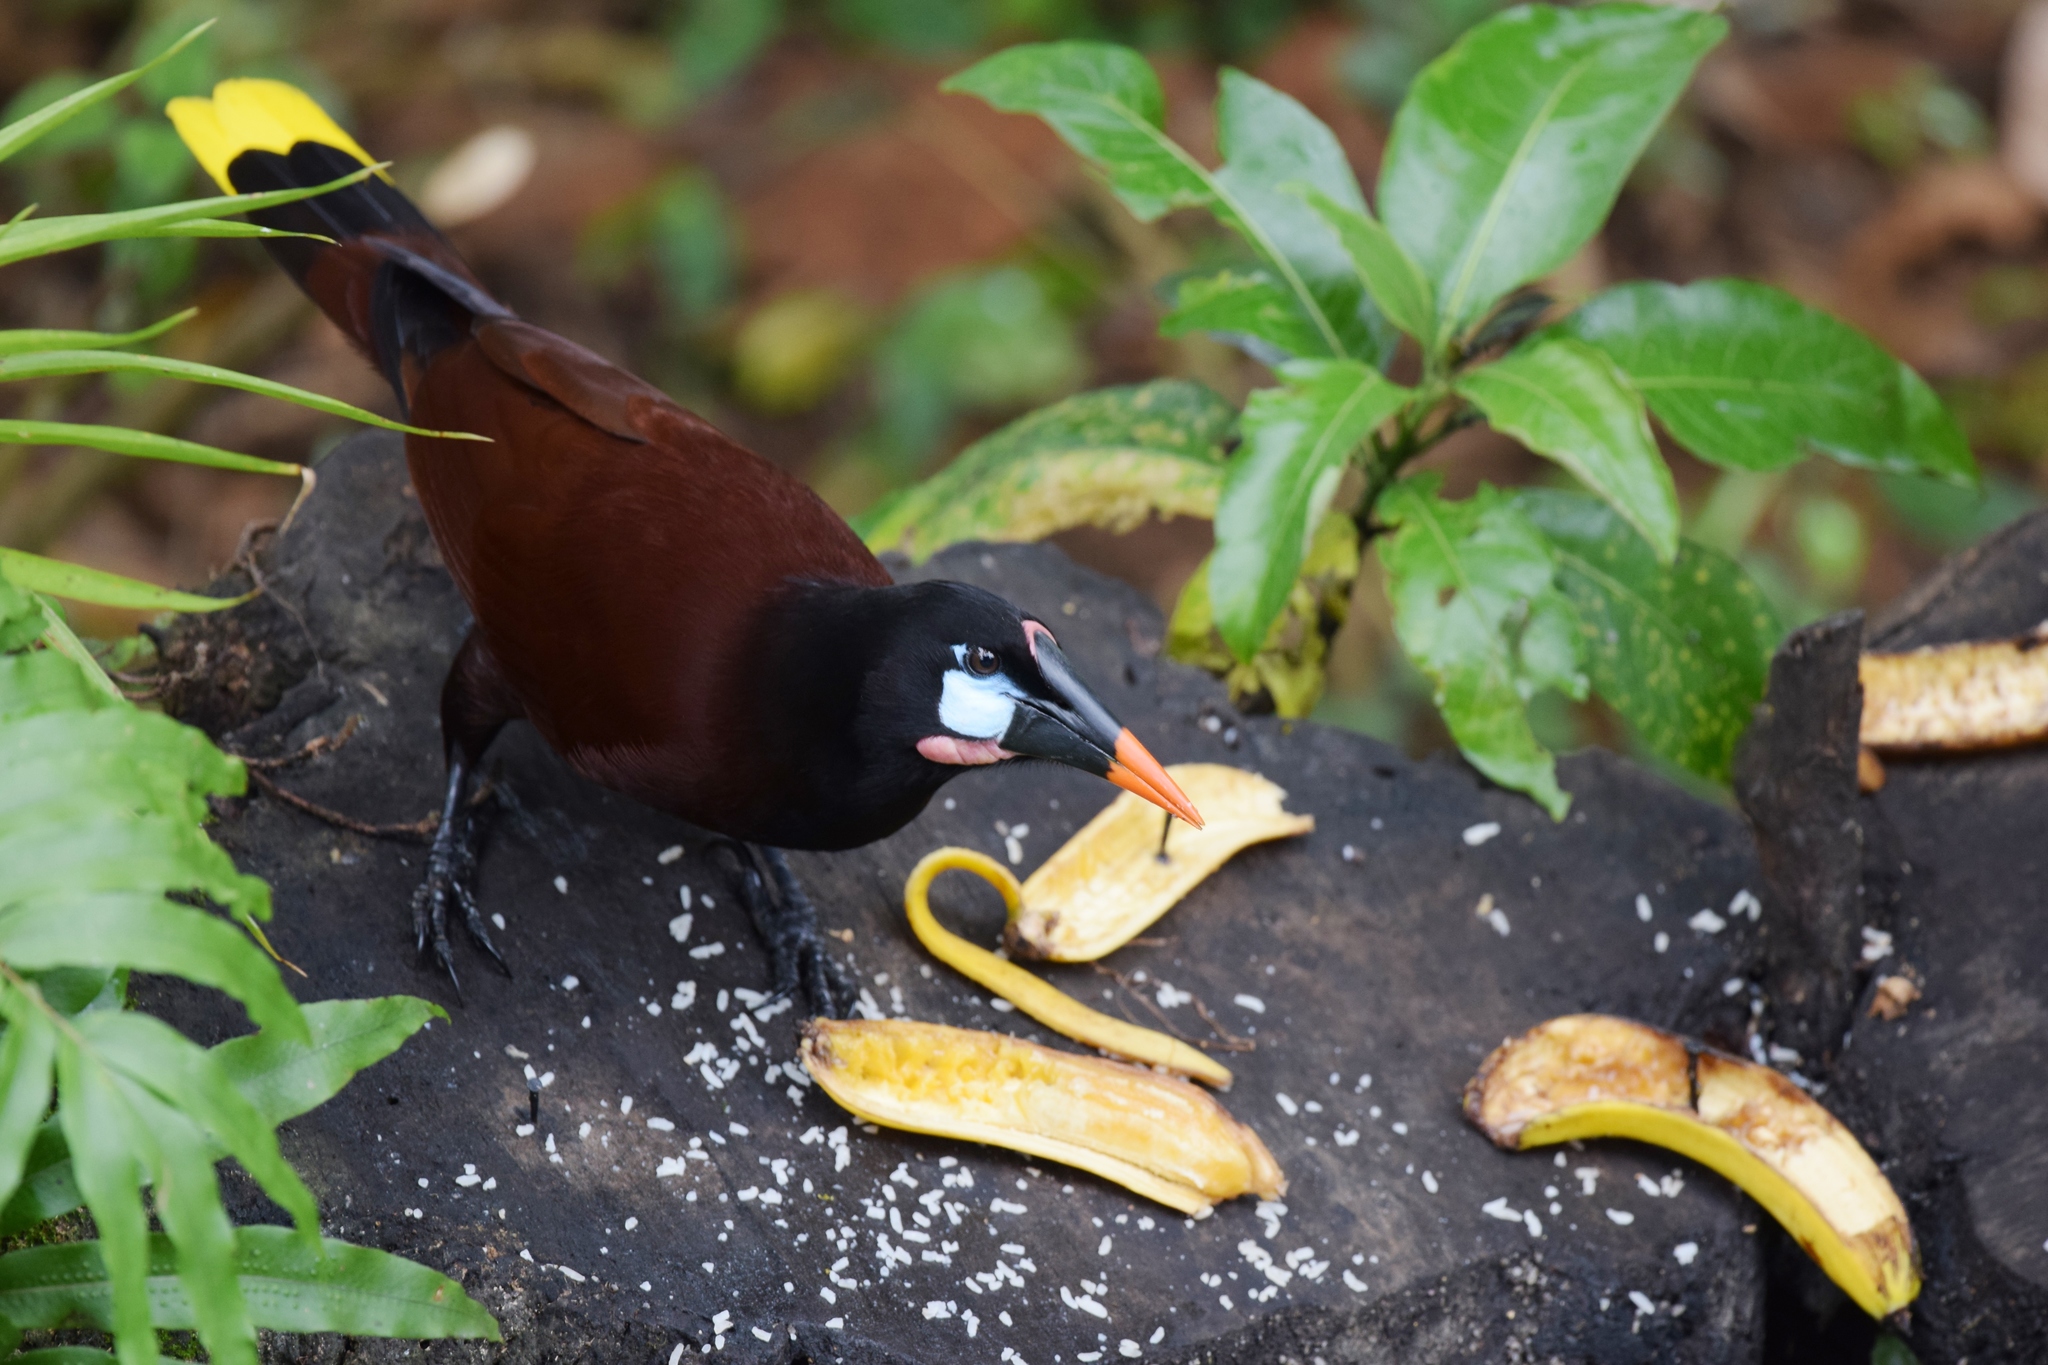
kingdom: Animalia
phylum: Chordata
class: Aves
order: Passeriformes
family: Icteridae
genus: Psarocolius
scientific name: Psarocolius montezuma
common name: Montezuma oropendola
